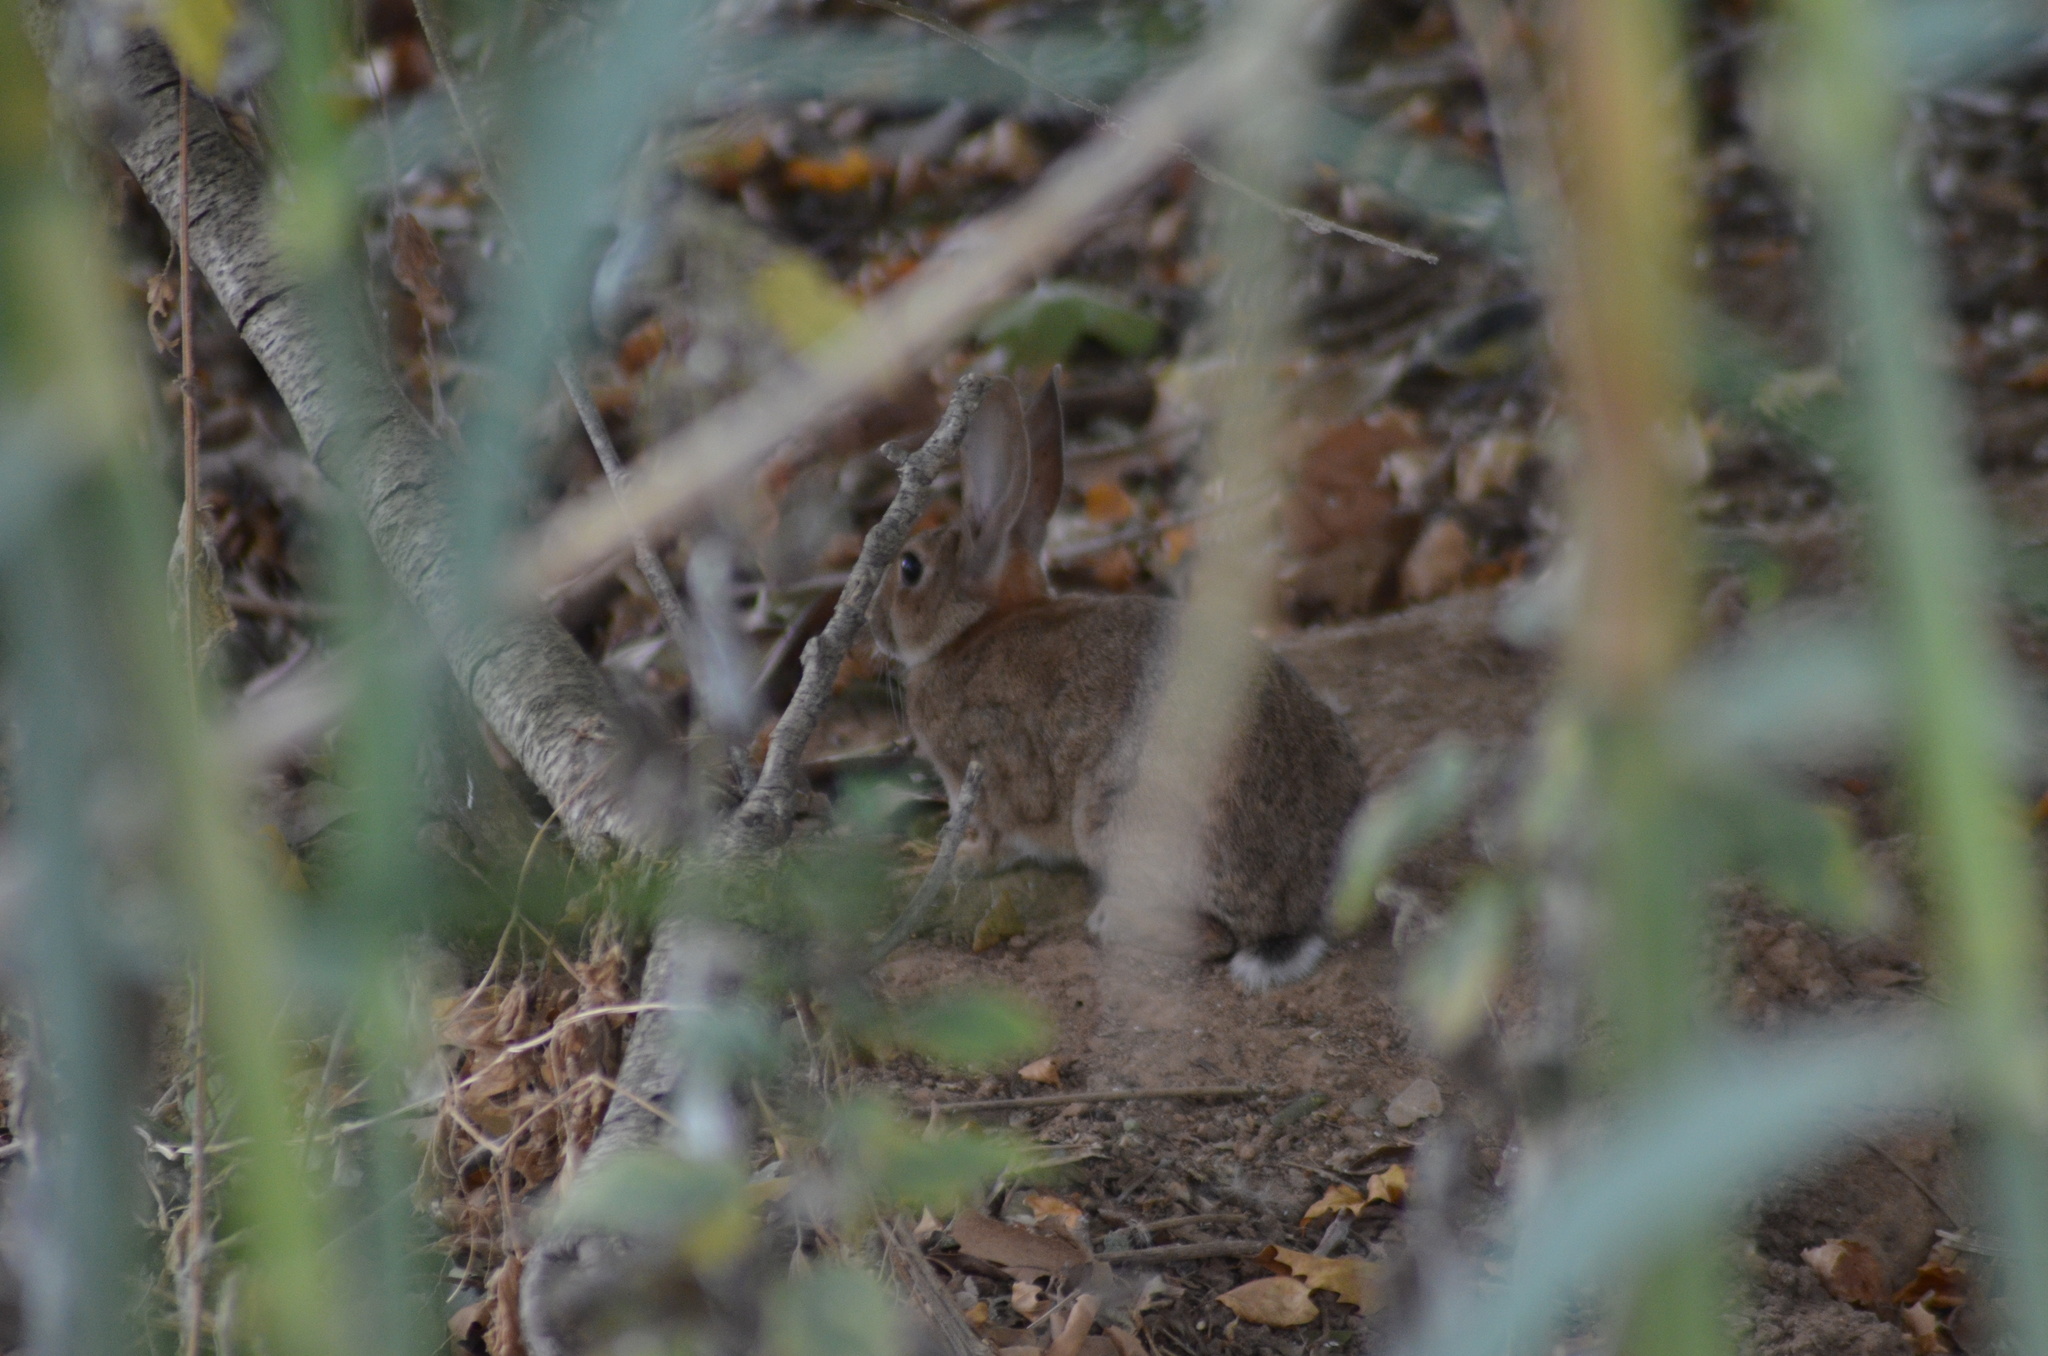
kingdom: Animalia
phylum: Chordata
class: Mammalia
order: Lagomorpha
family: Leporidae
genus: Oryctolagus
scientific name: Oryctolagus cuniculus
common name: European rabbit
